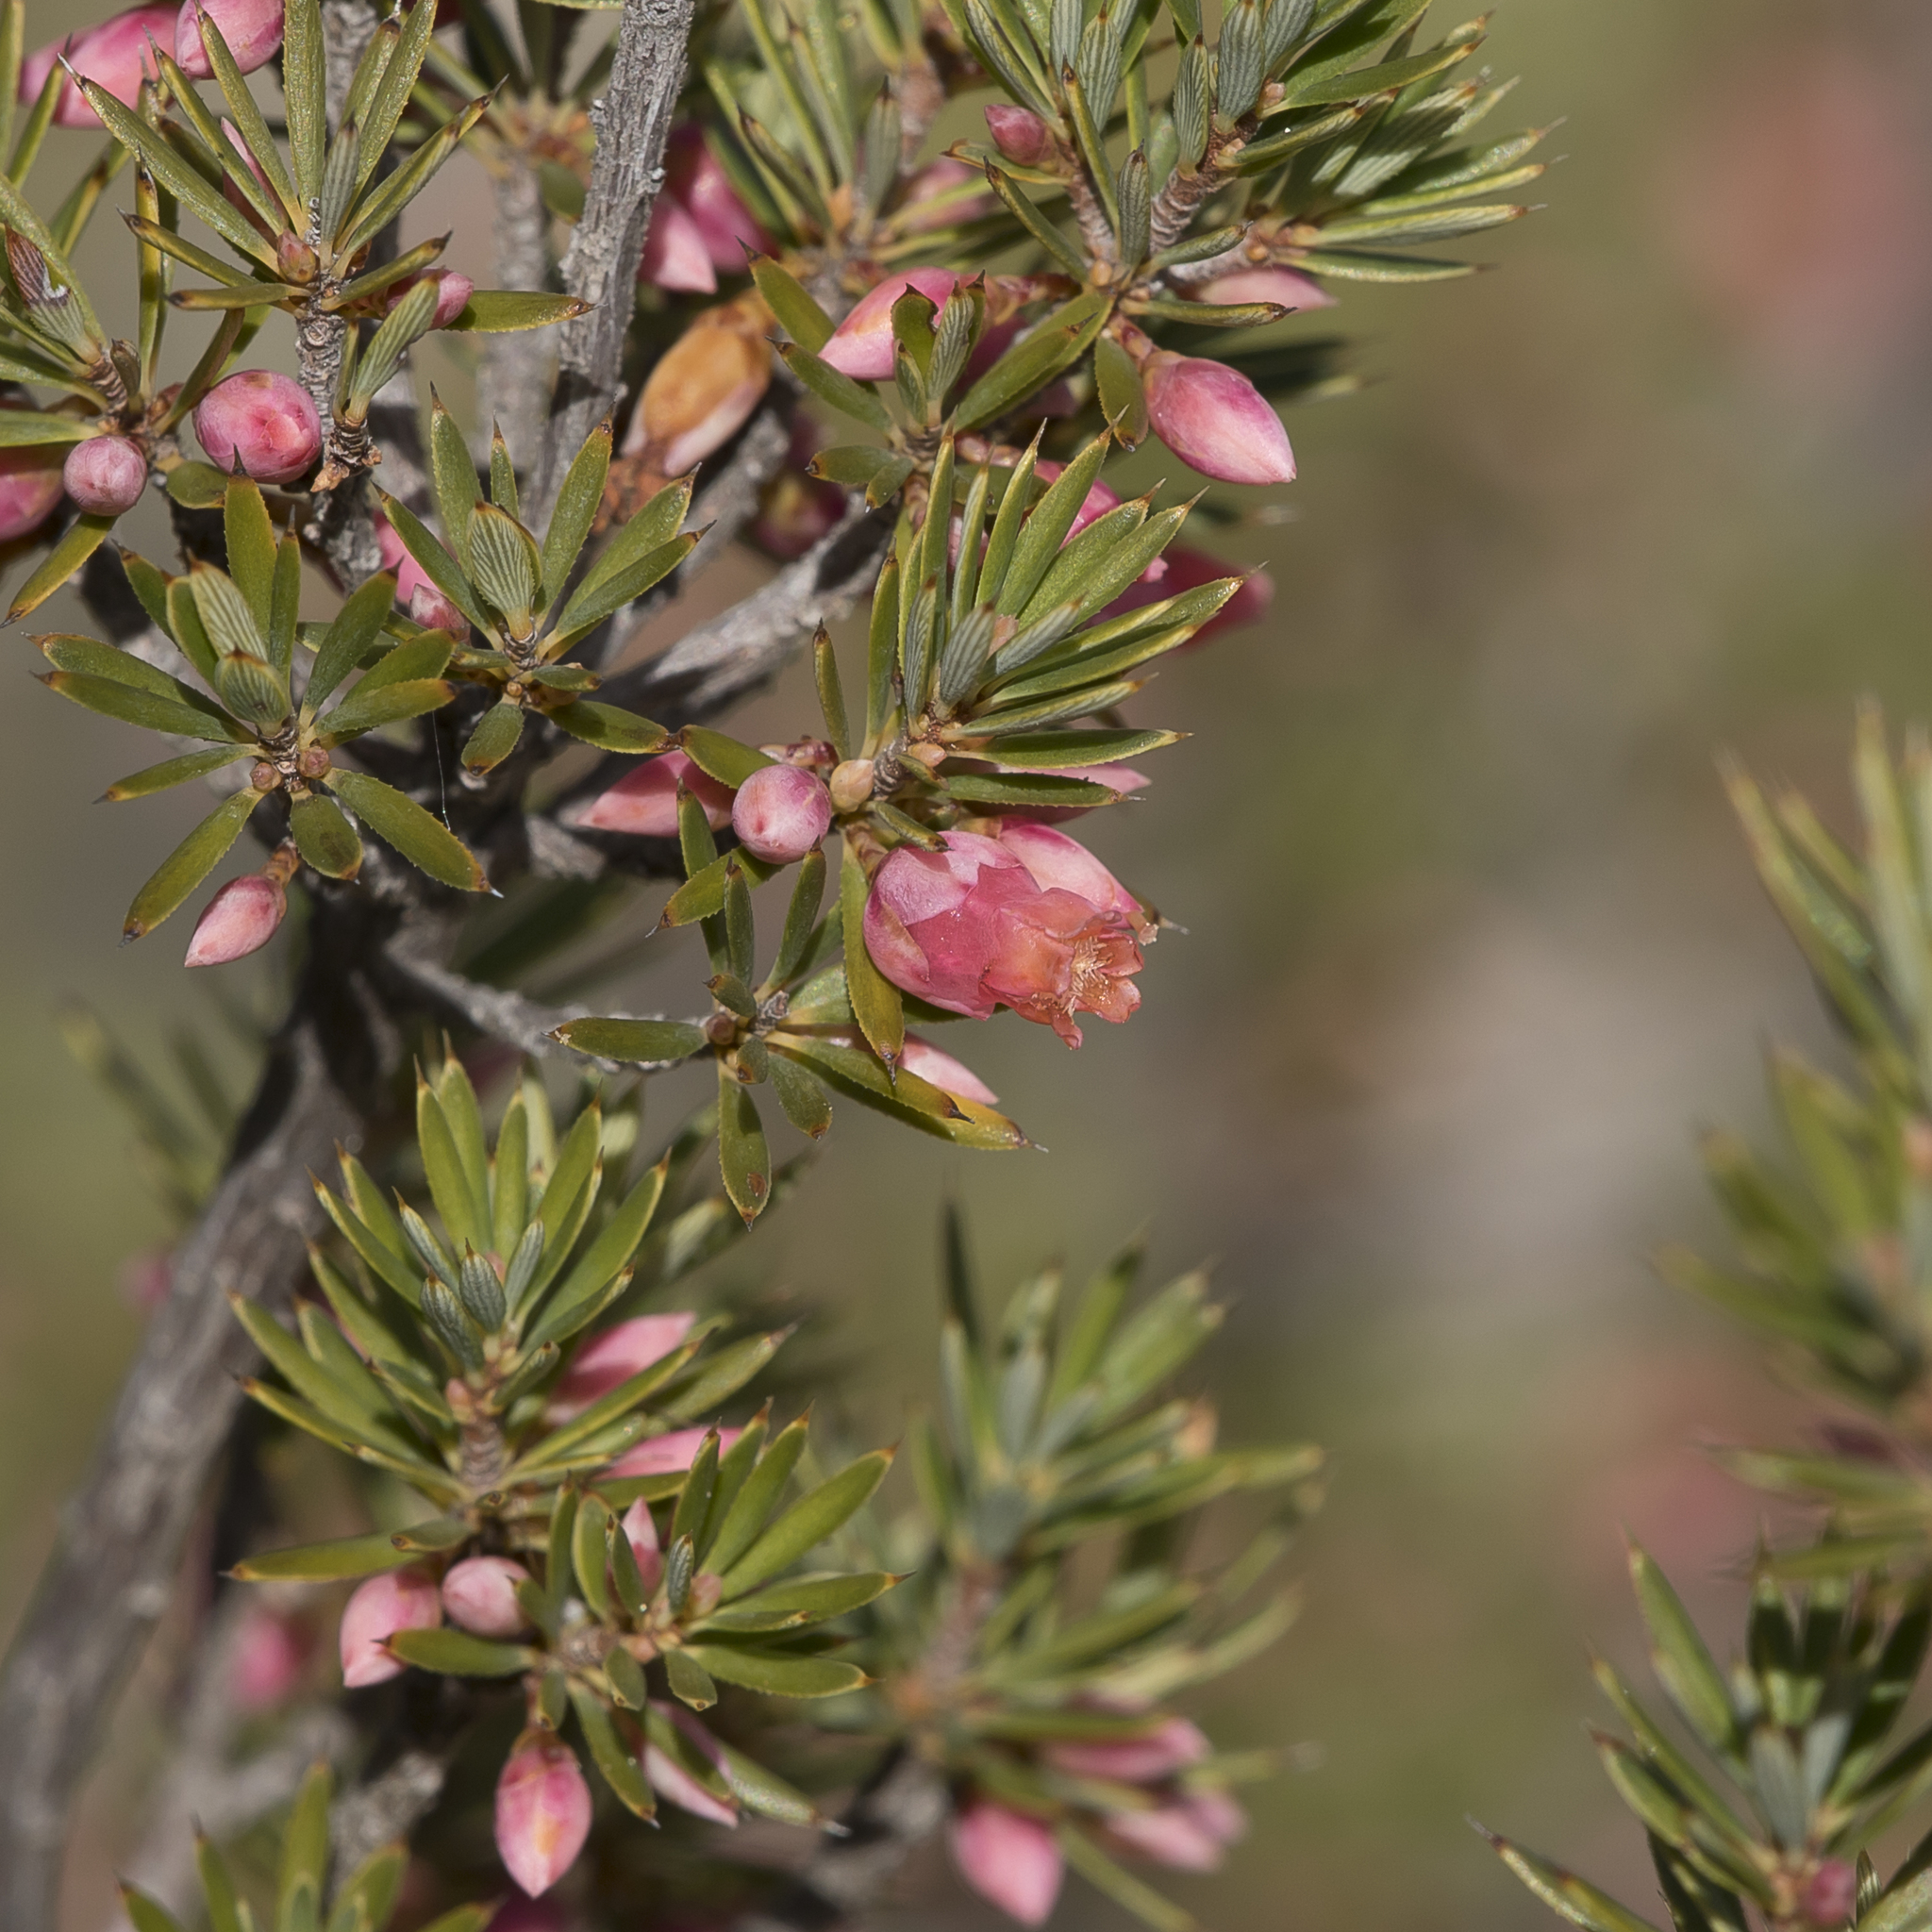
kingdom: Plantae
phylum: Tracheophyta
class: Magnoliopsida
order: Ericales
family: Ericaceae
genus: Brachyloma
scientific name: Brachyloma ericoides
